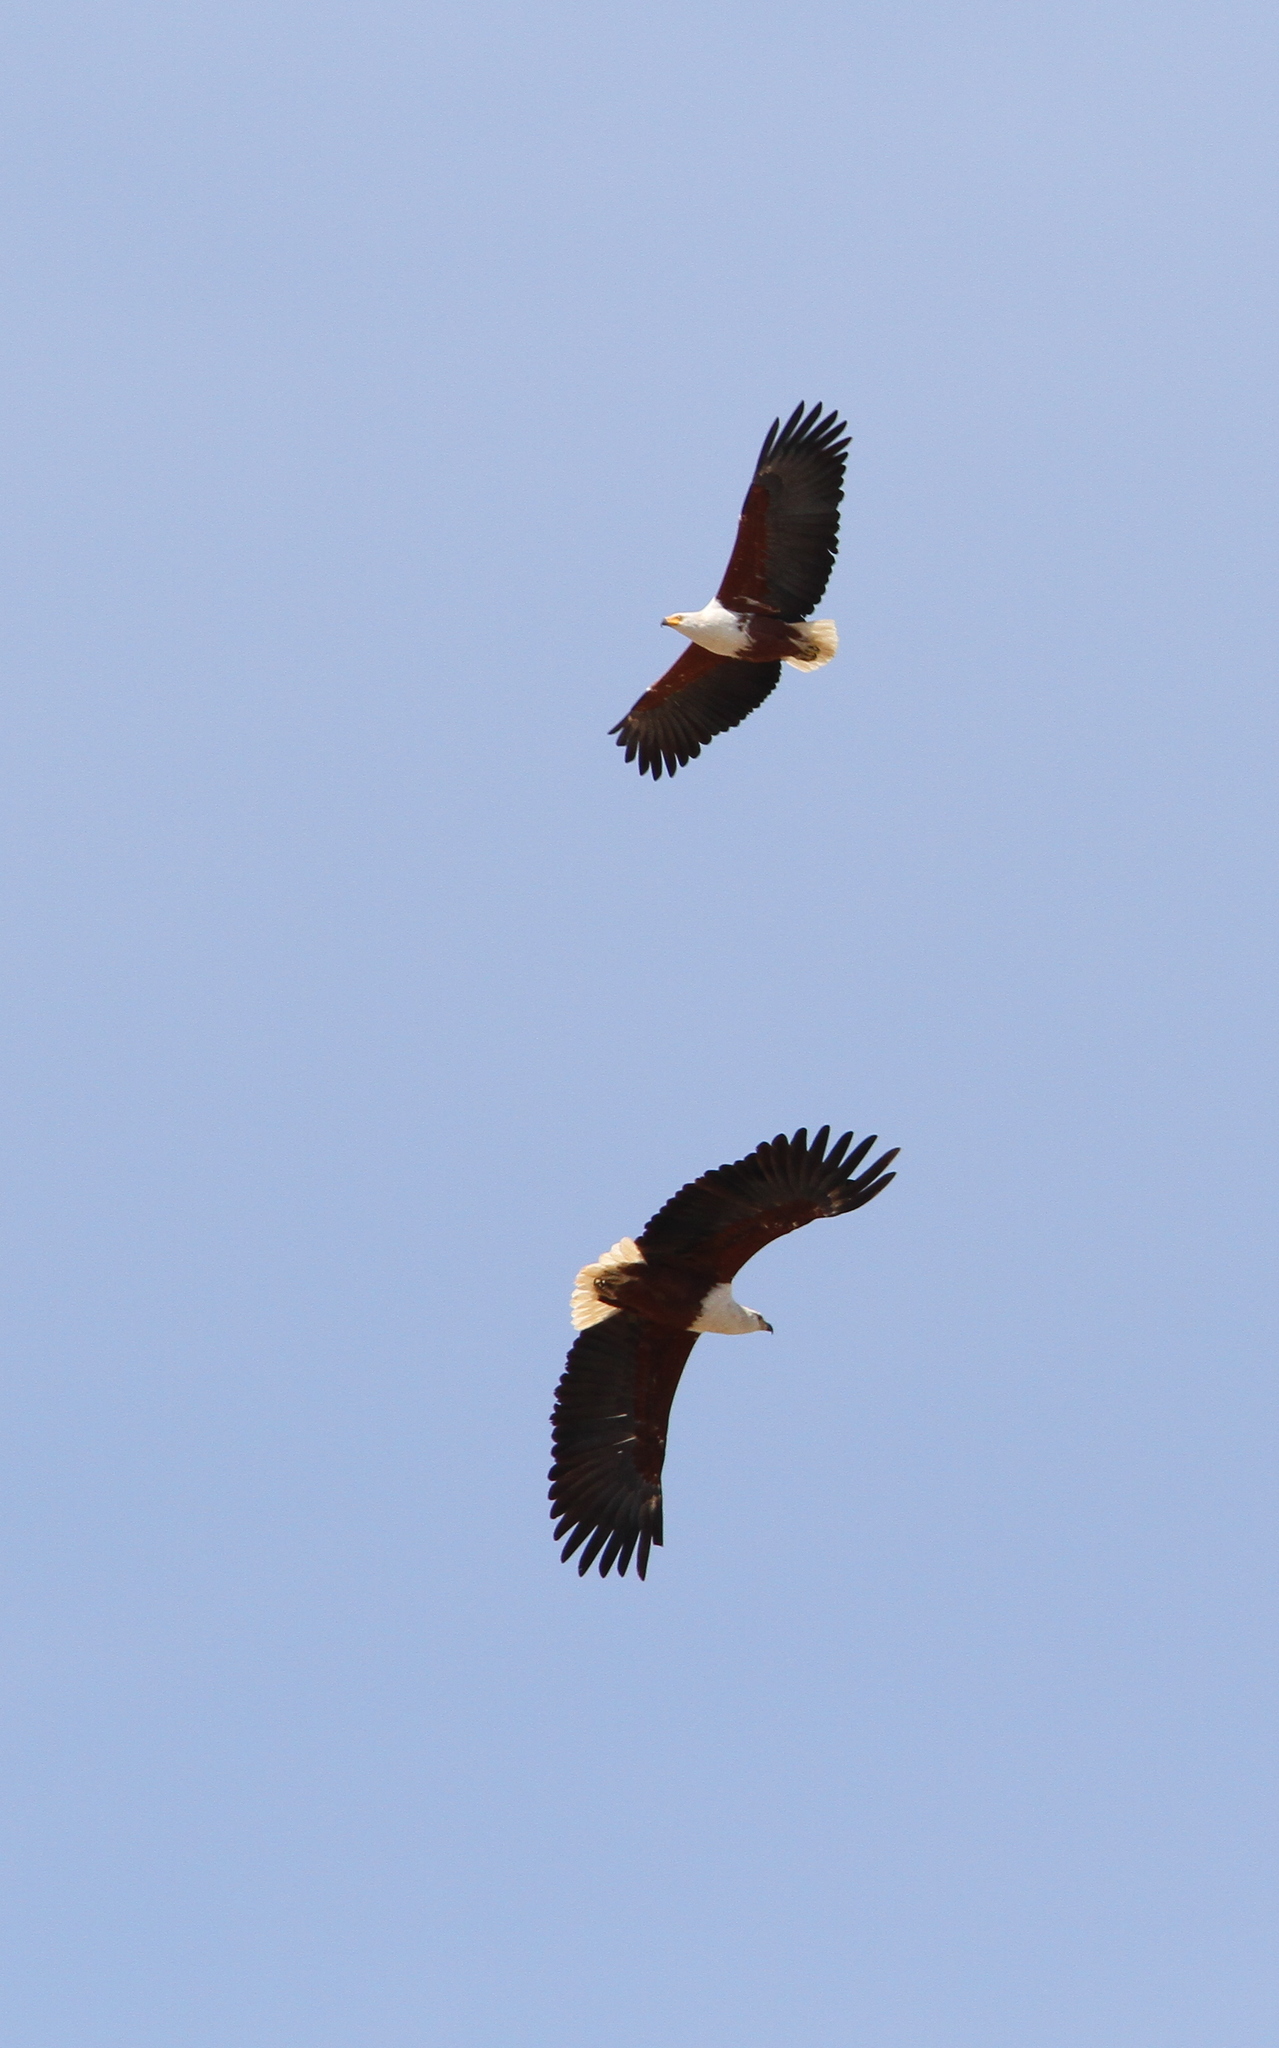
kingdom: Animalia
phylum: Chordata
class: Aves
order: Accipitriformes
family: Accipitridae
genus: Haliaeetus
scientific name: Haliaeetus vocifer
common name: African fish eagle
